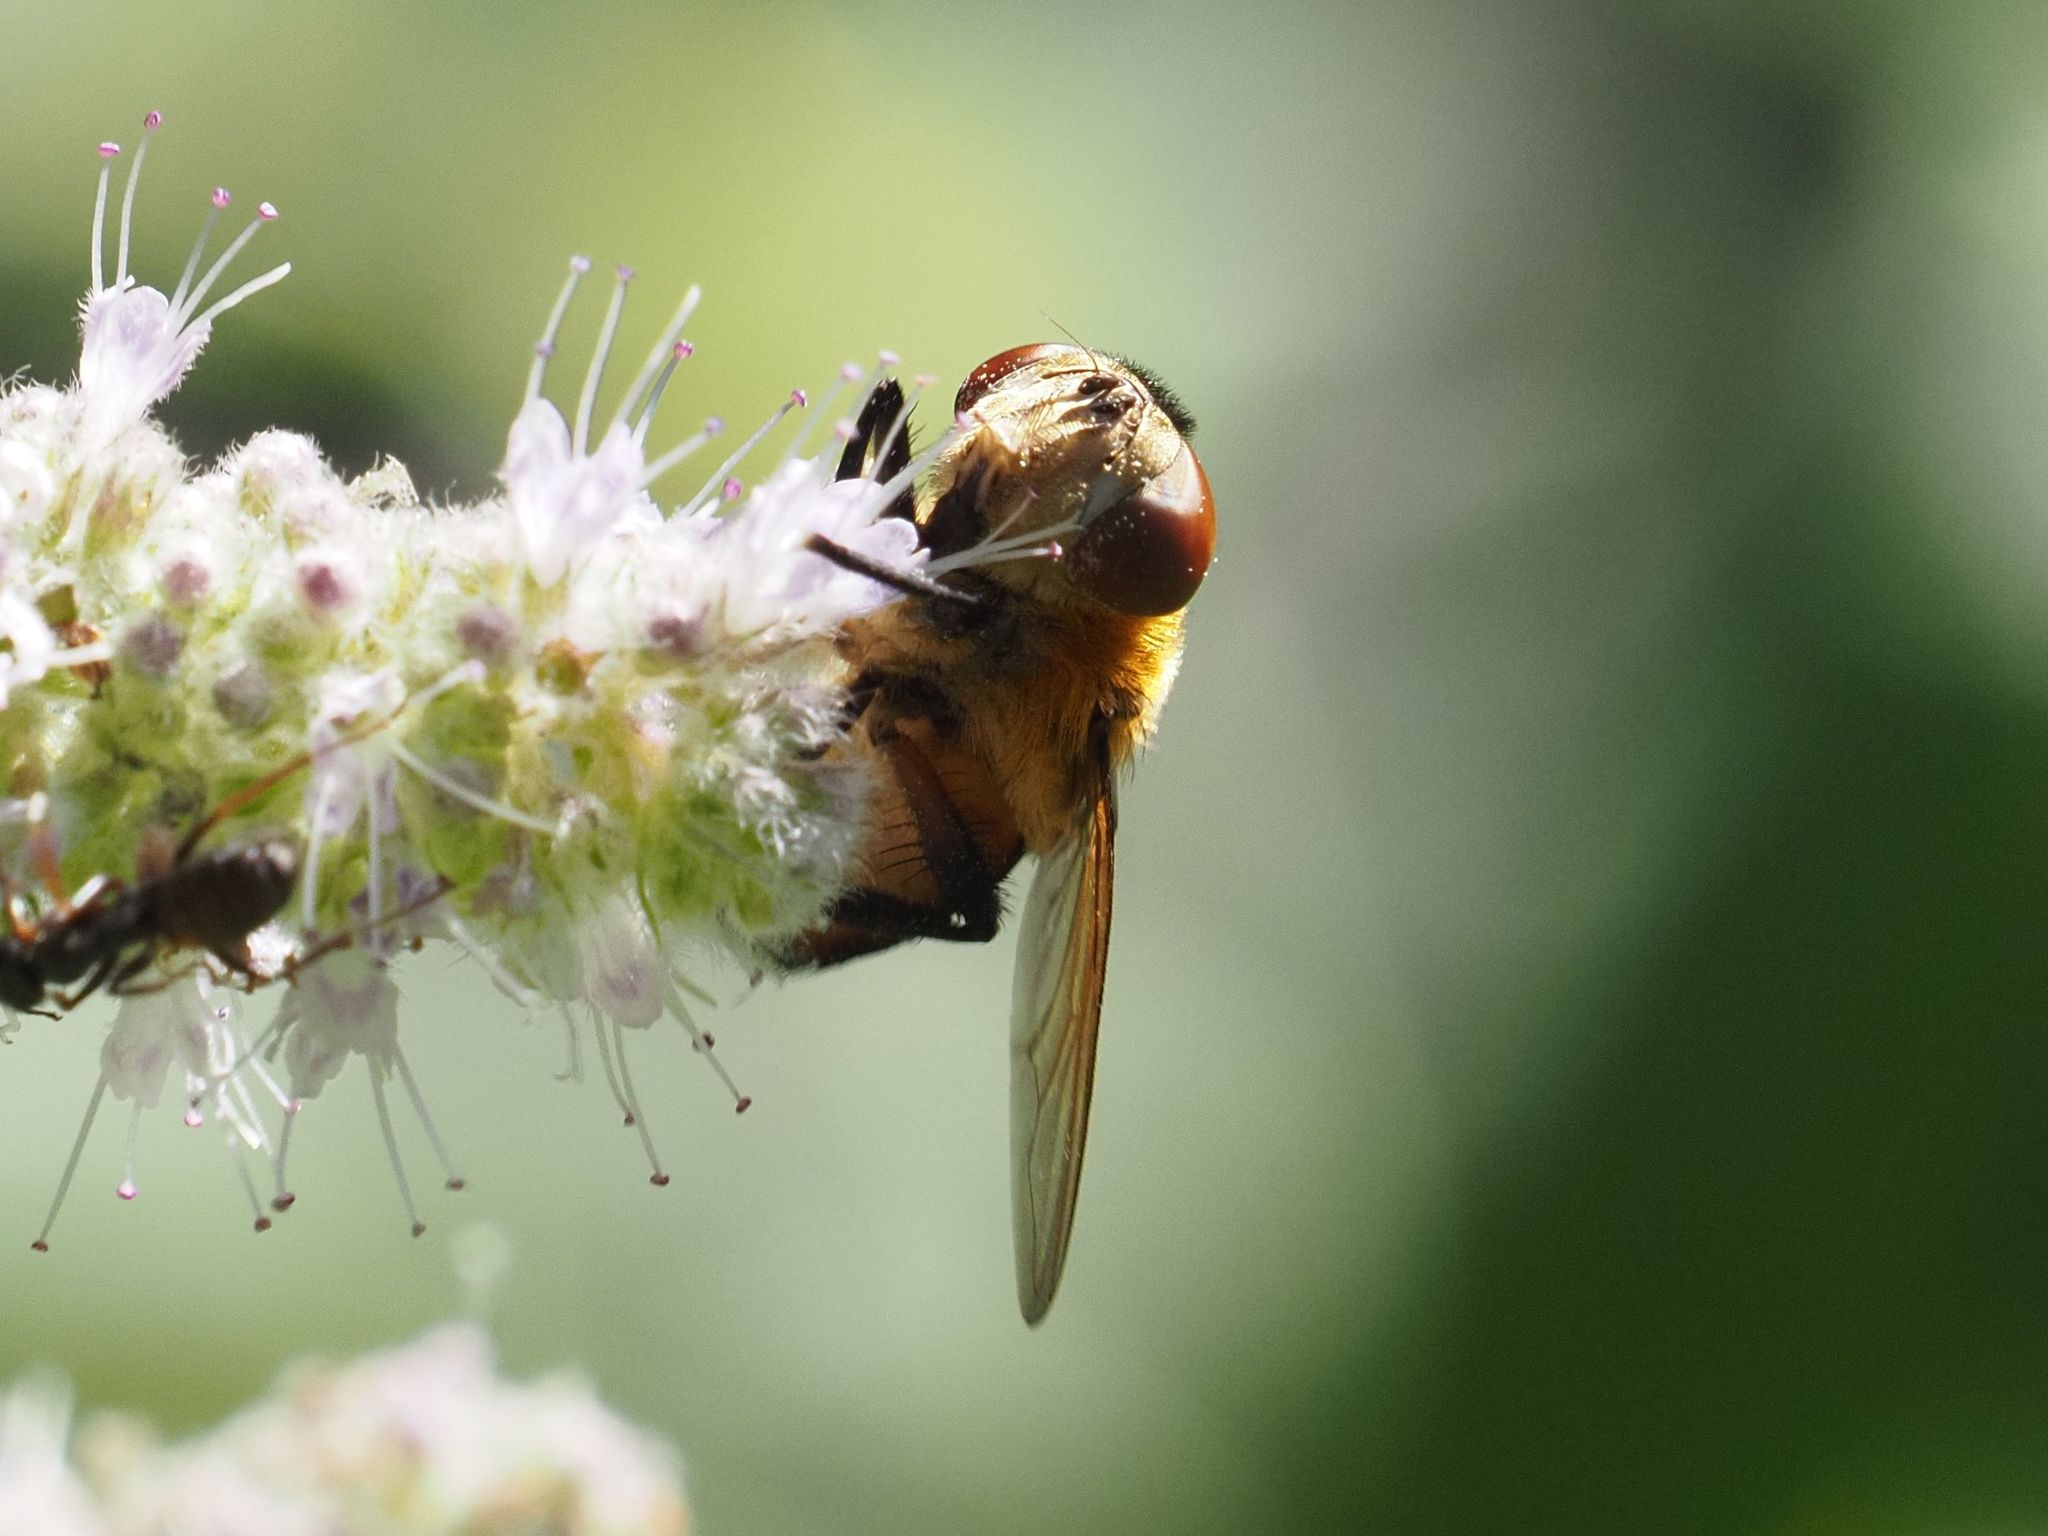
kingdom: Animalia
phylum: Arthropoda
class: Insecta
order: Diptera
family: Tachinidae
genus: Phasia
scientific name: Phasia hemiptera
